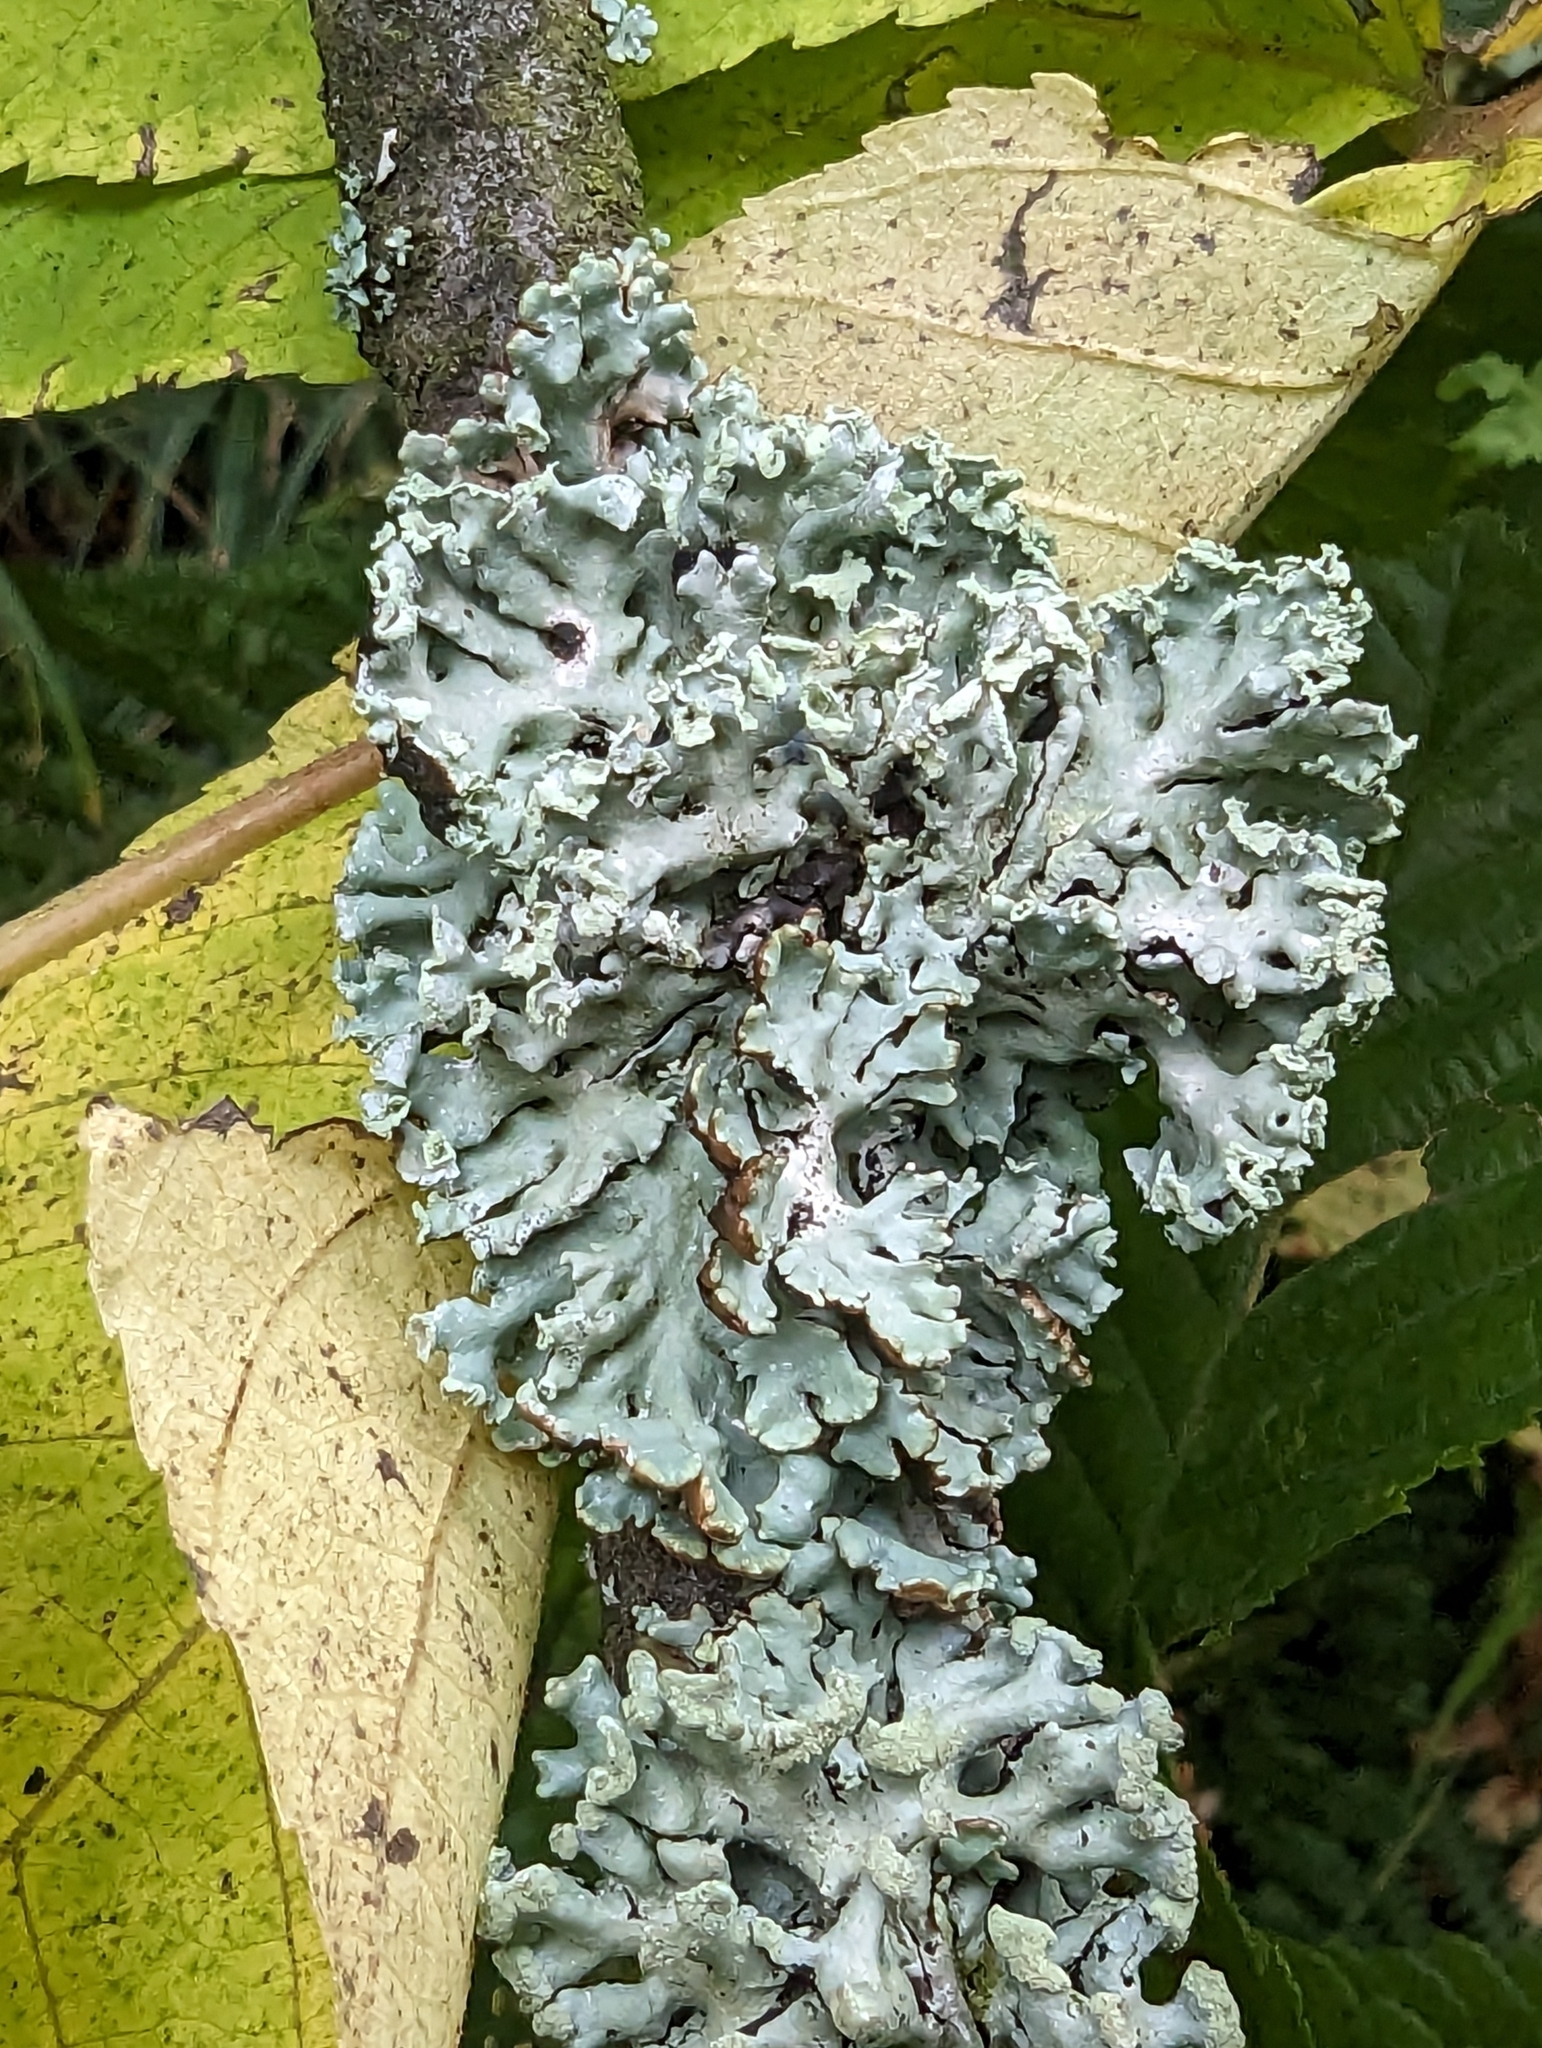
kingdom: Fungi
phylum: Ascomycota
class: Lecanoromycetes
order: Lecanorales
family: Parmeliaceae
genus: Hypogymnia
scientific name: Hypogymnia physodes
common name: Dark crottle
